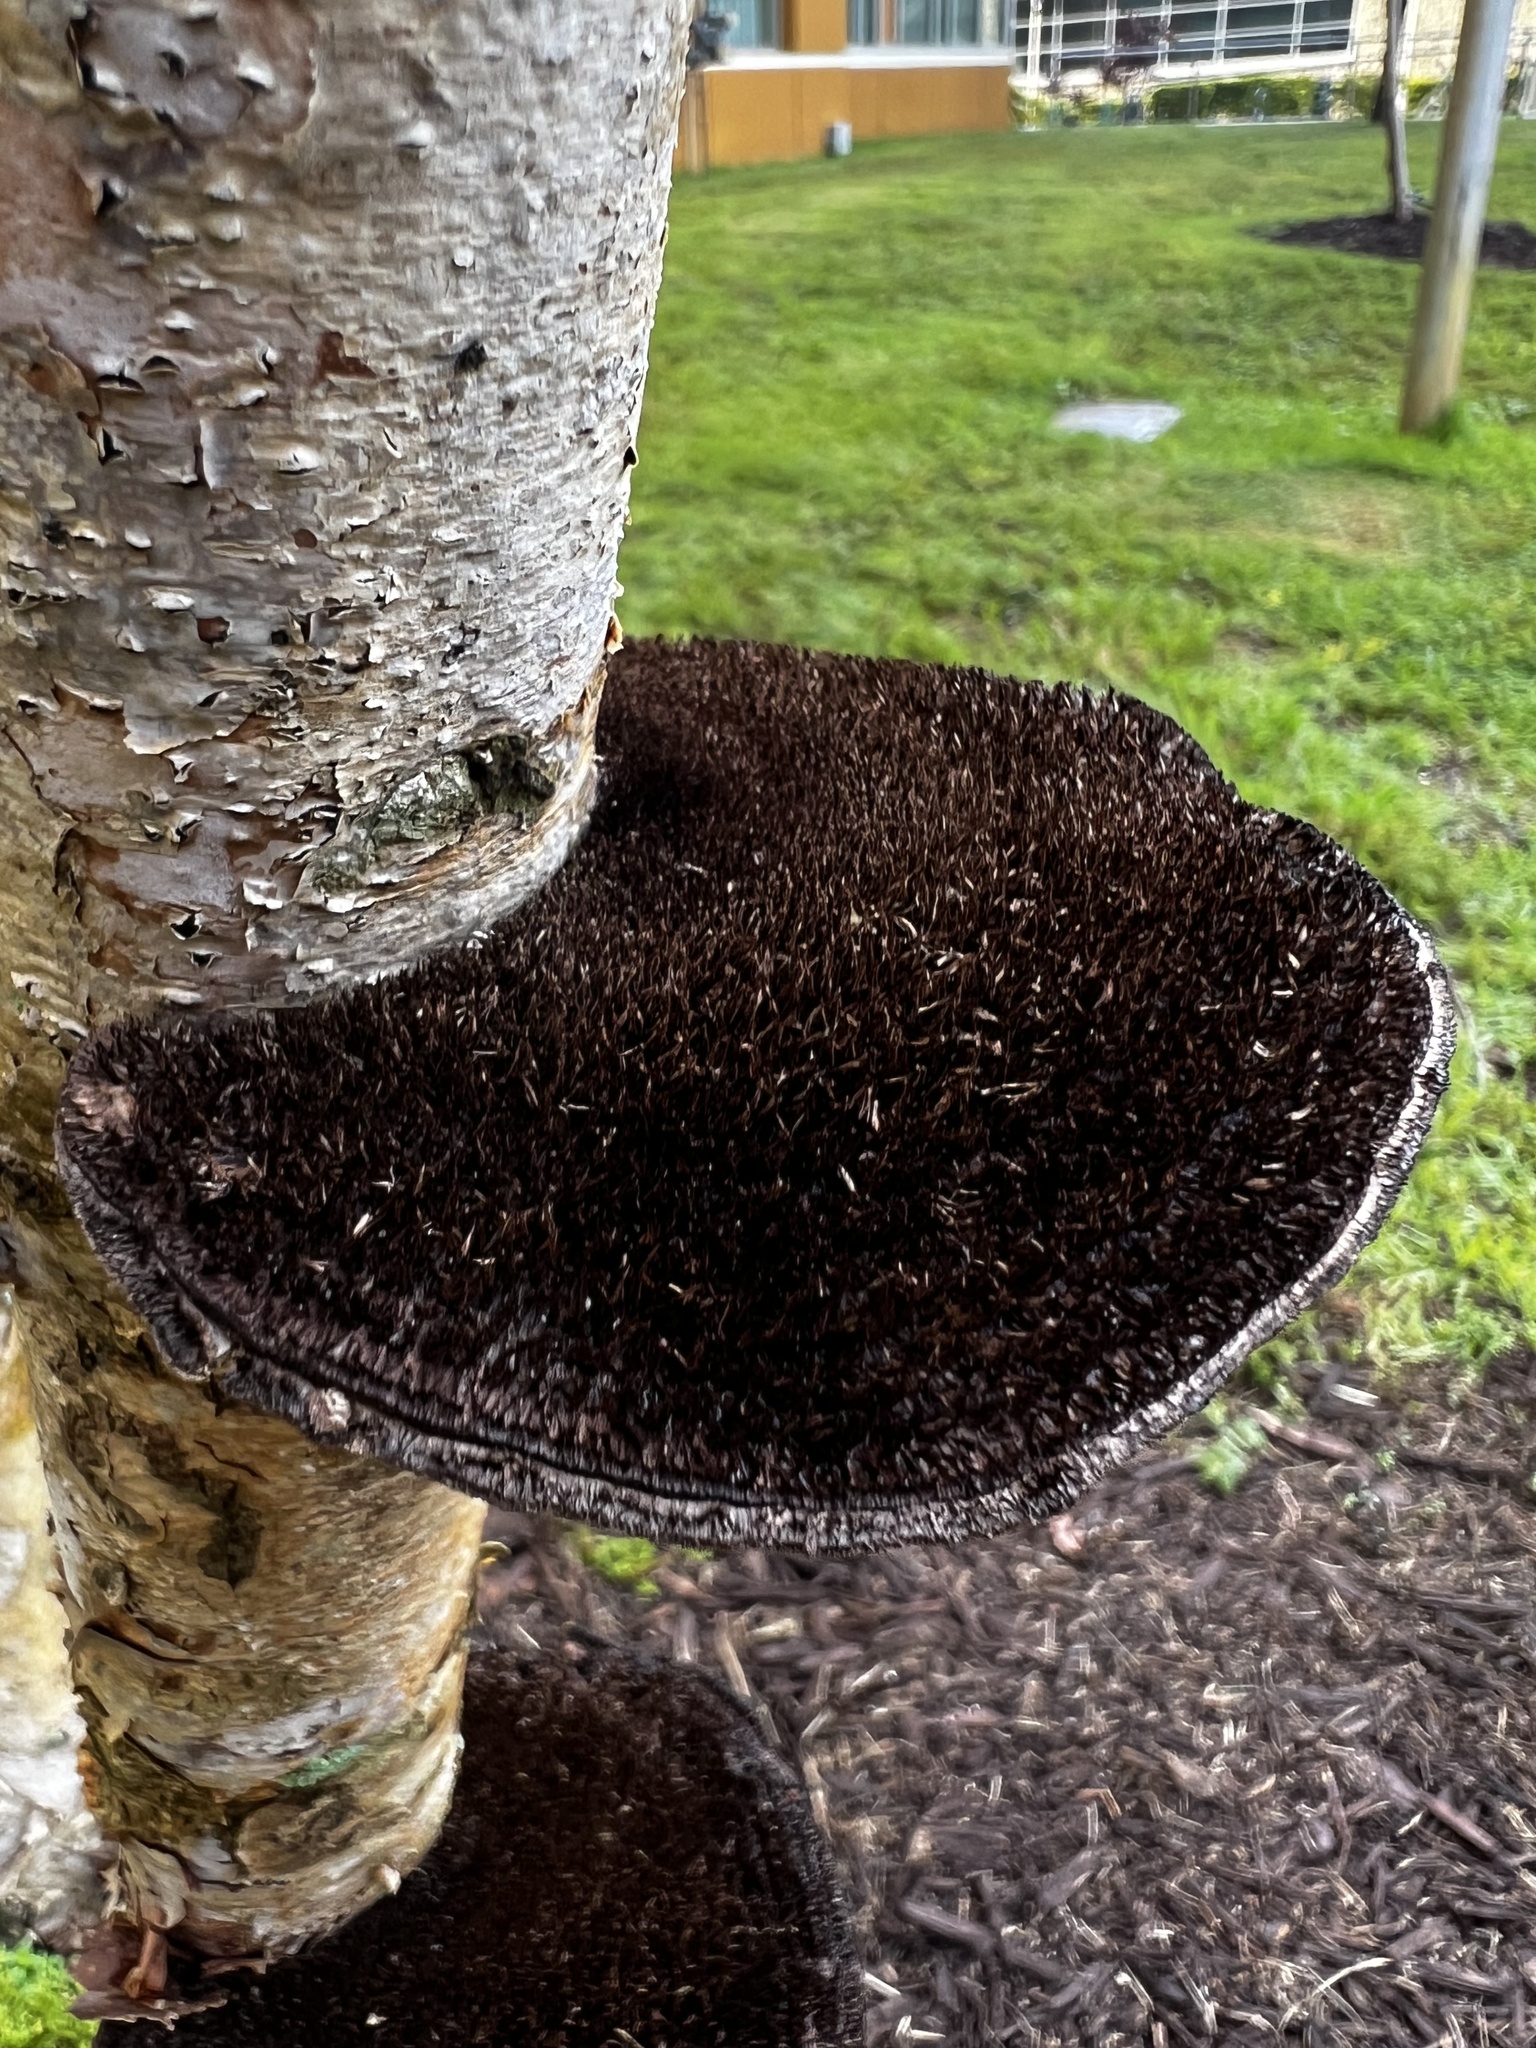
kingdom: Fungi
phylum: Basidiomycota
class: Agaricomycetes
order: Polyporales
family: Cerrenaceae
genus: Cerrena
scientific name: Cerrena hydnoides
